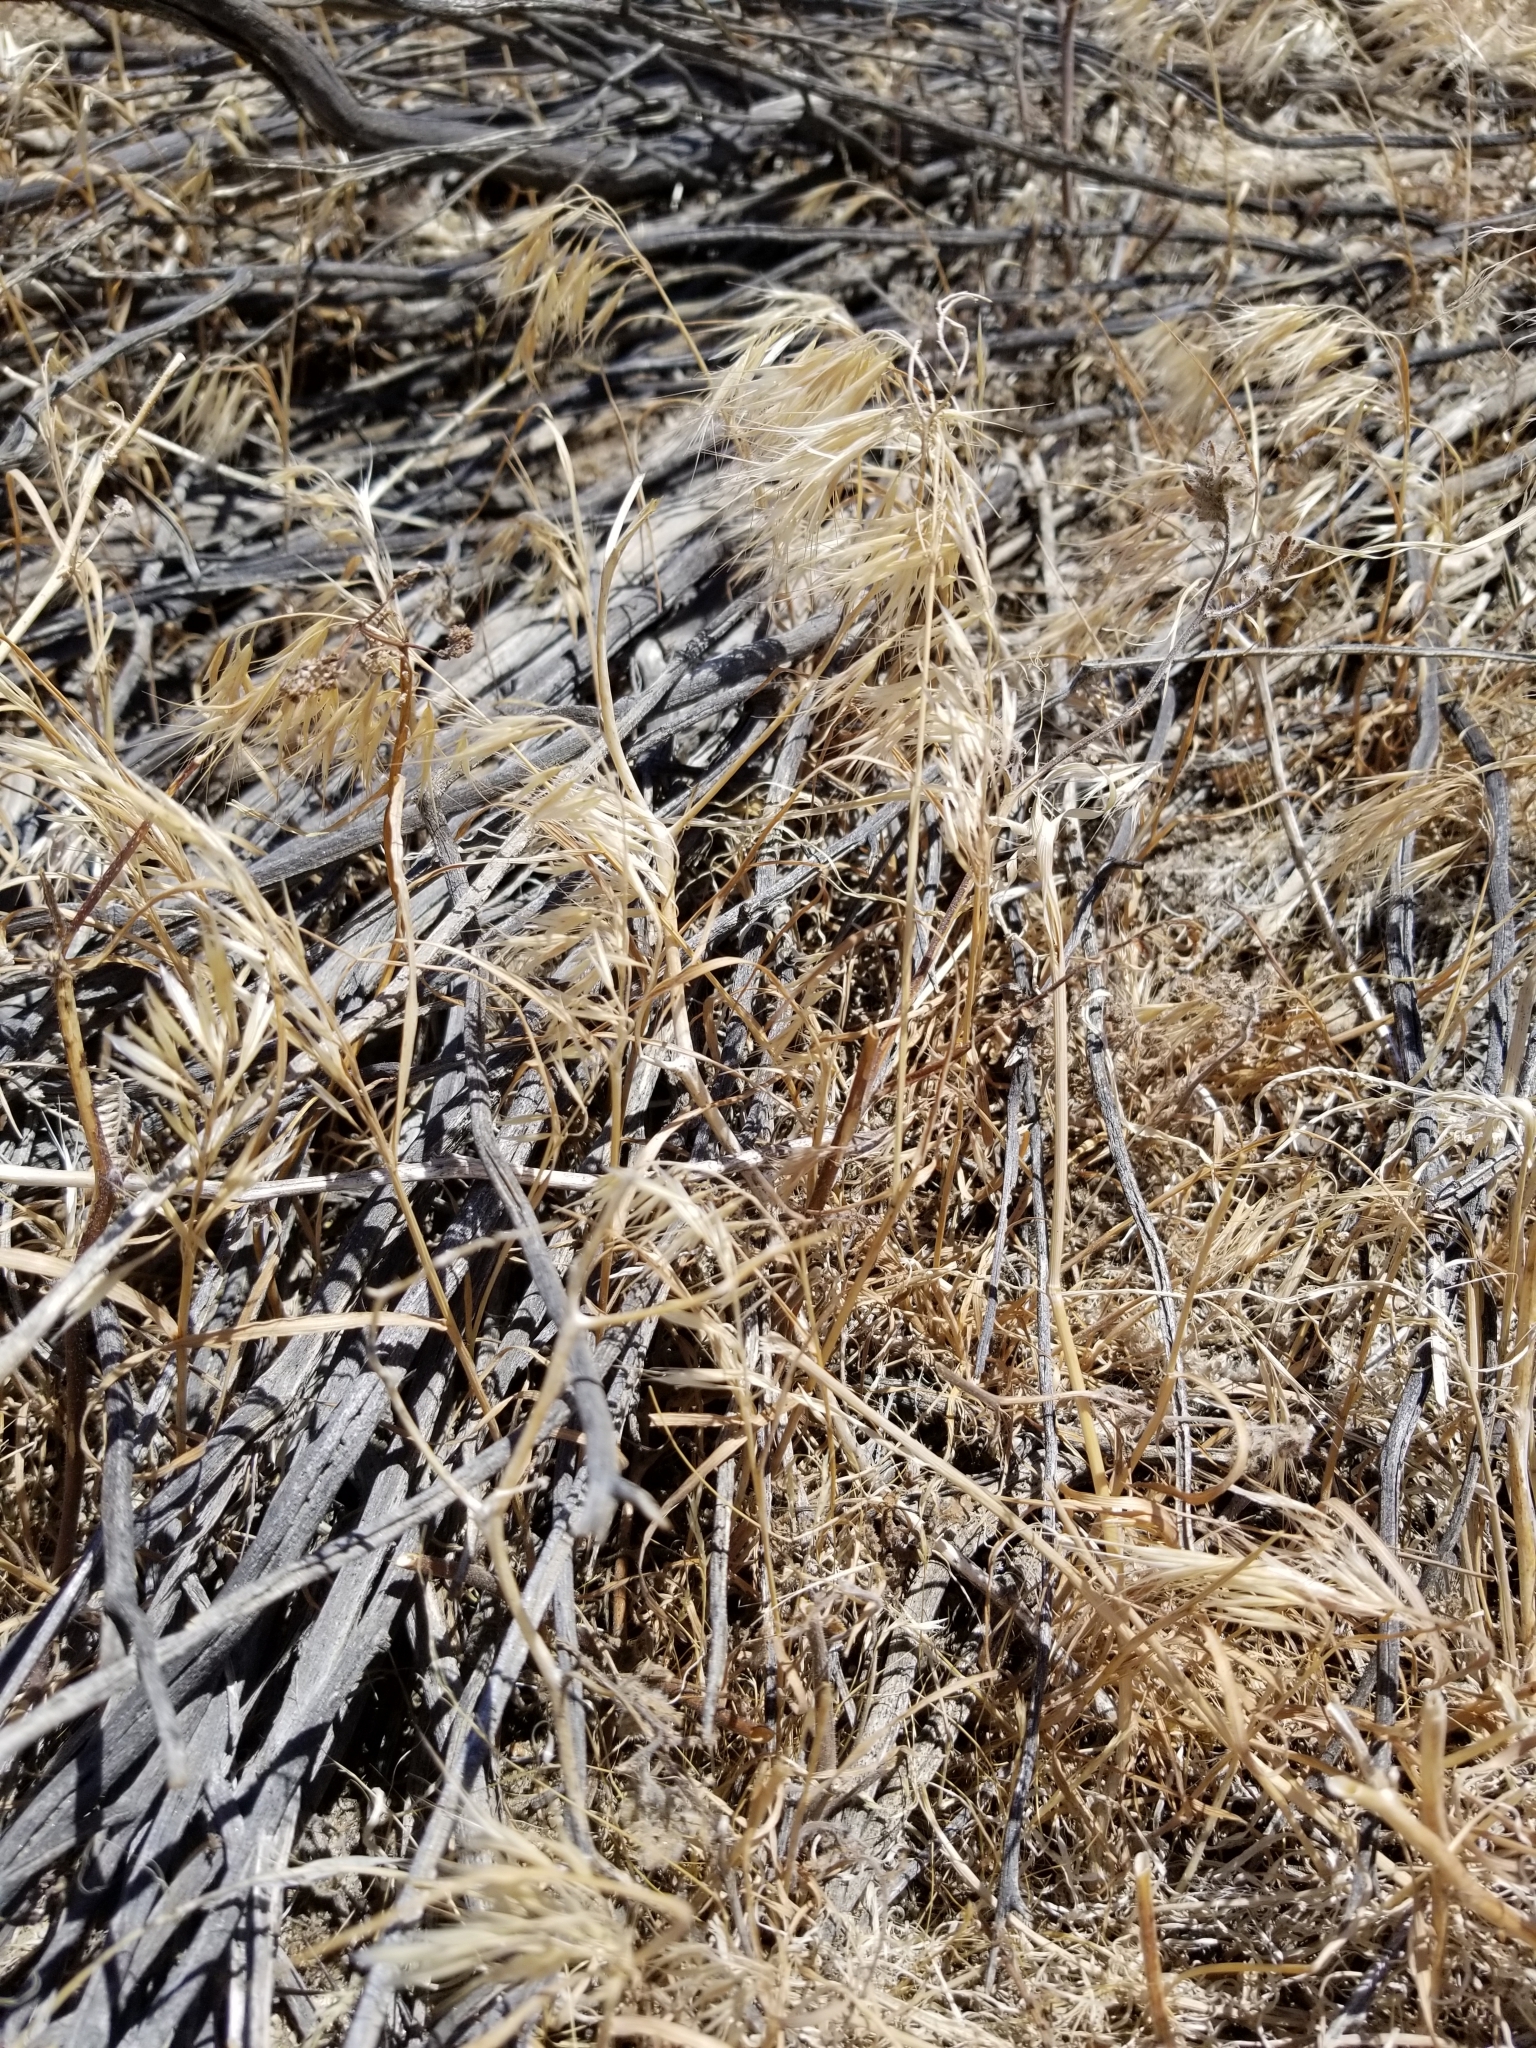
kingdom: Plantae
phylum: Tracheophyta
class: Liliopsida
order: Poales
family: Poaceae
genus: Bromus
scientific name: Bromus tectorum
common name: Cheatgrass
